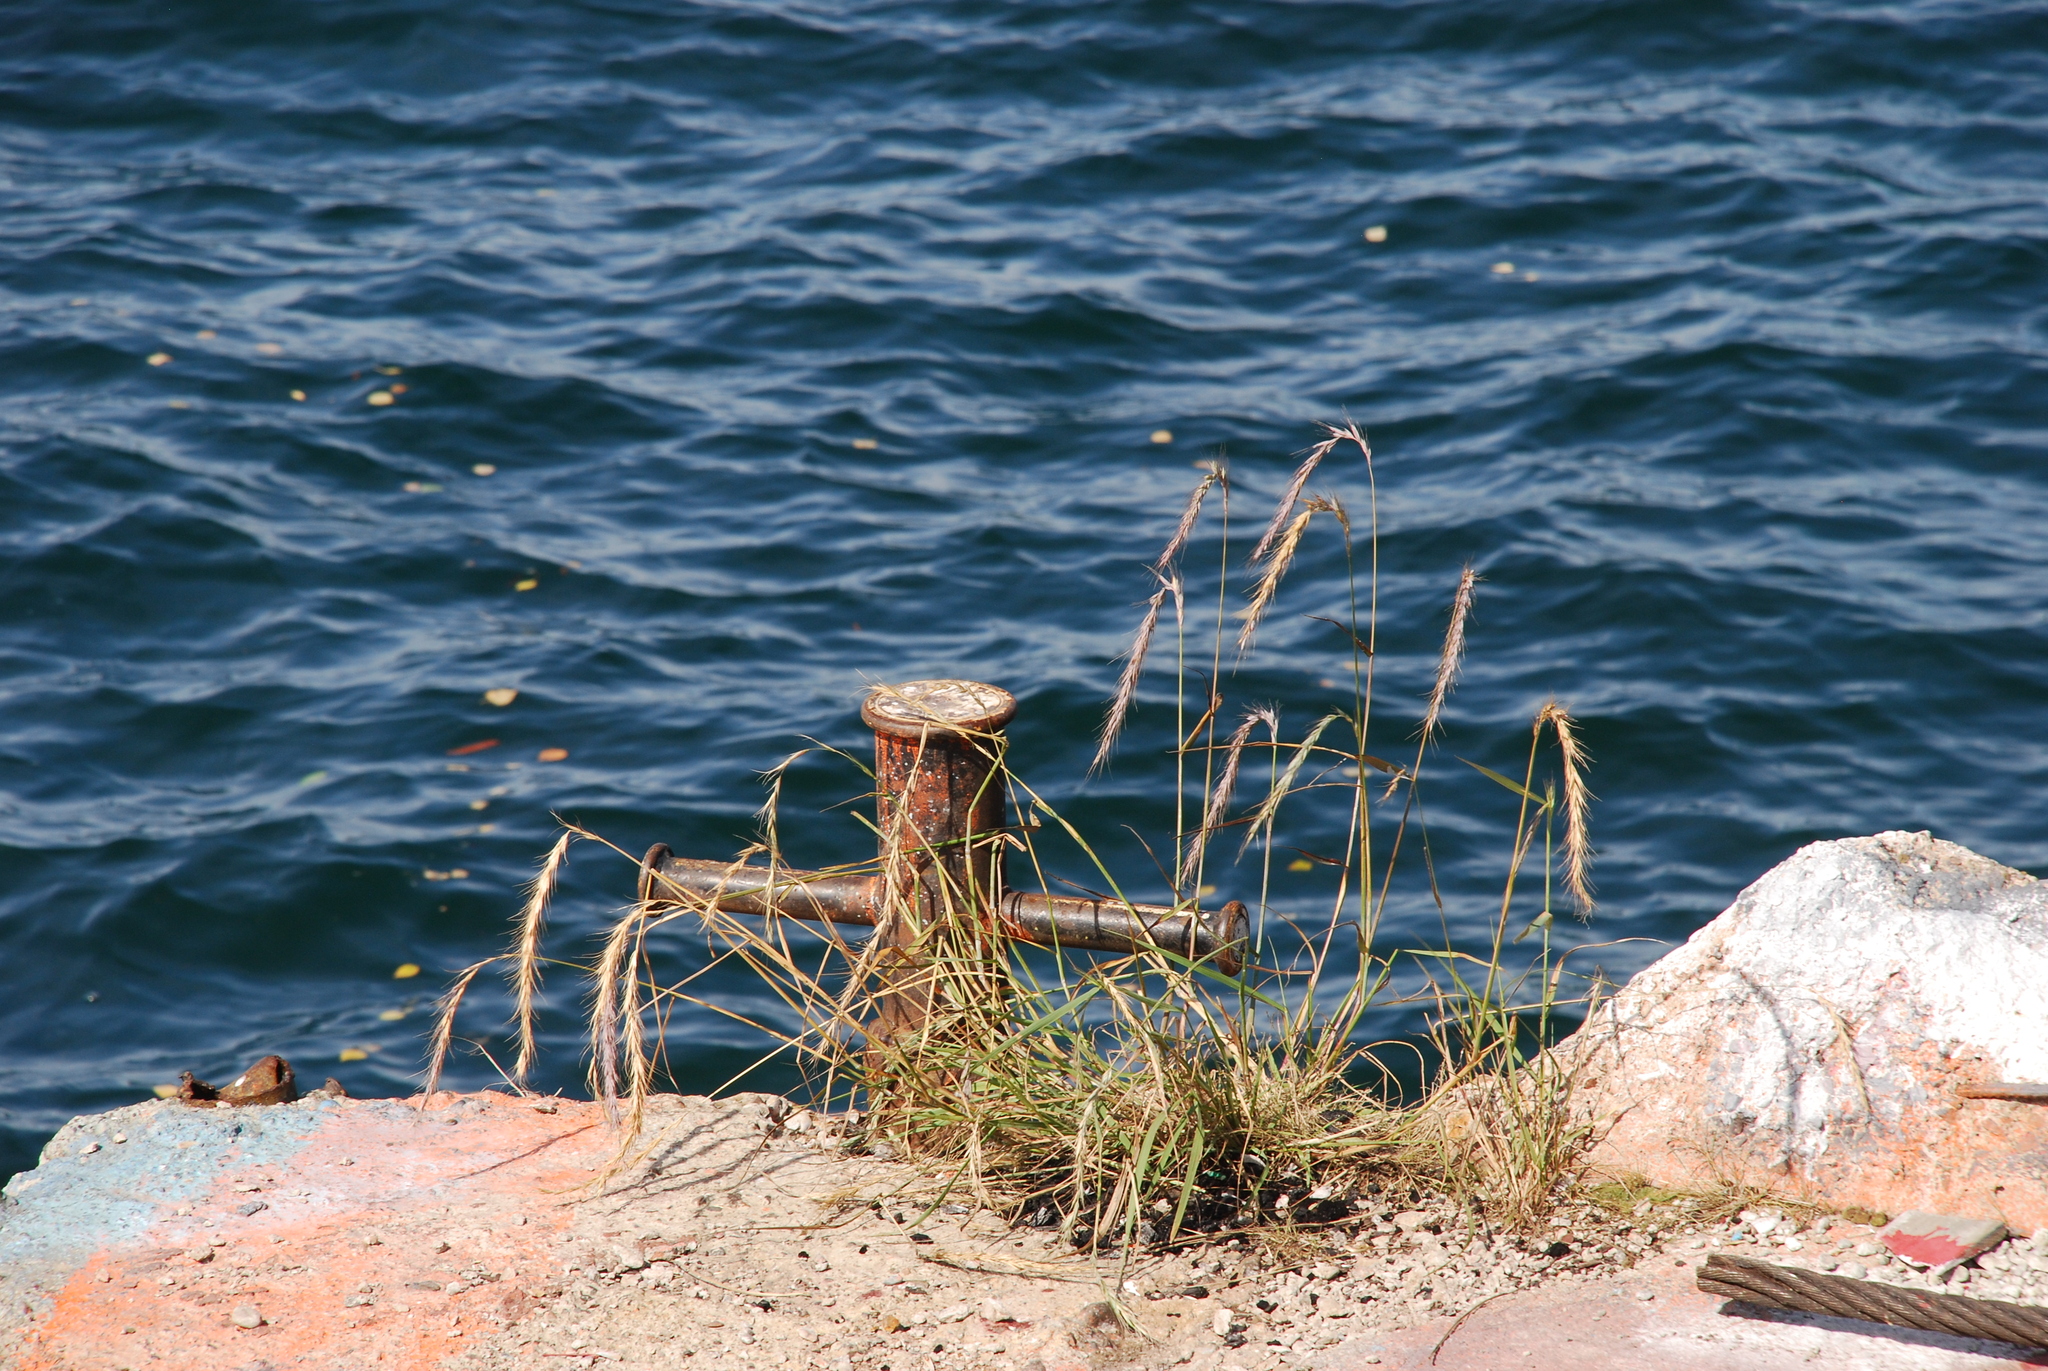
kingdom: Plantae
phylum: Tracheophyta
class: Liliopsida
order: Poales
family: Poaceae
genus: Elymus
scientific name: Elymus sibiricus
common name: Siberian wildrye
